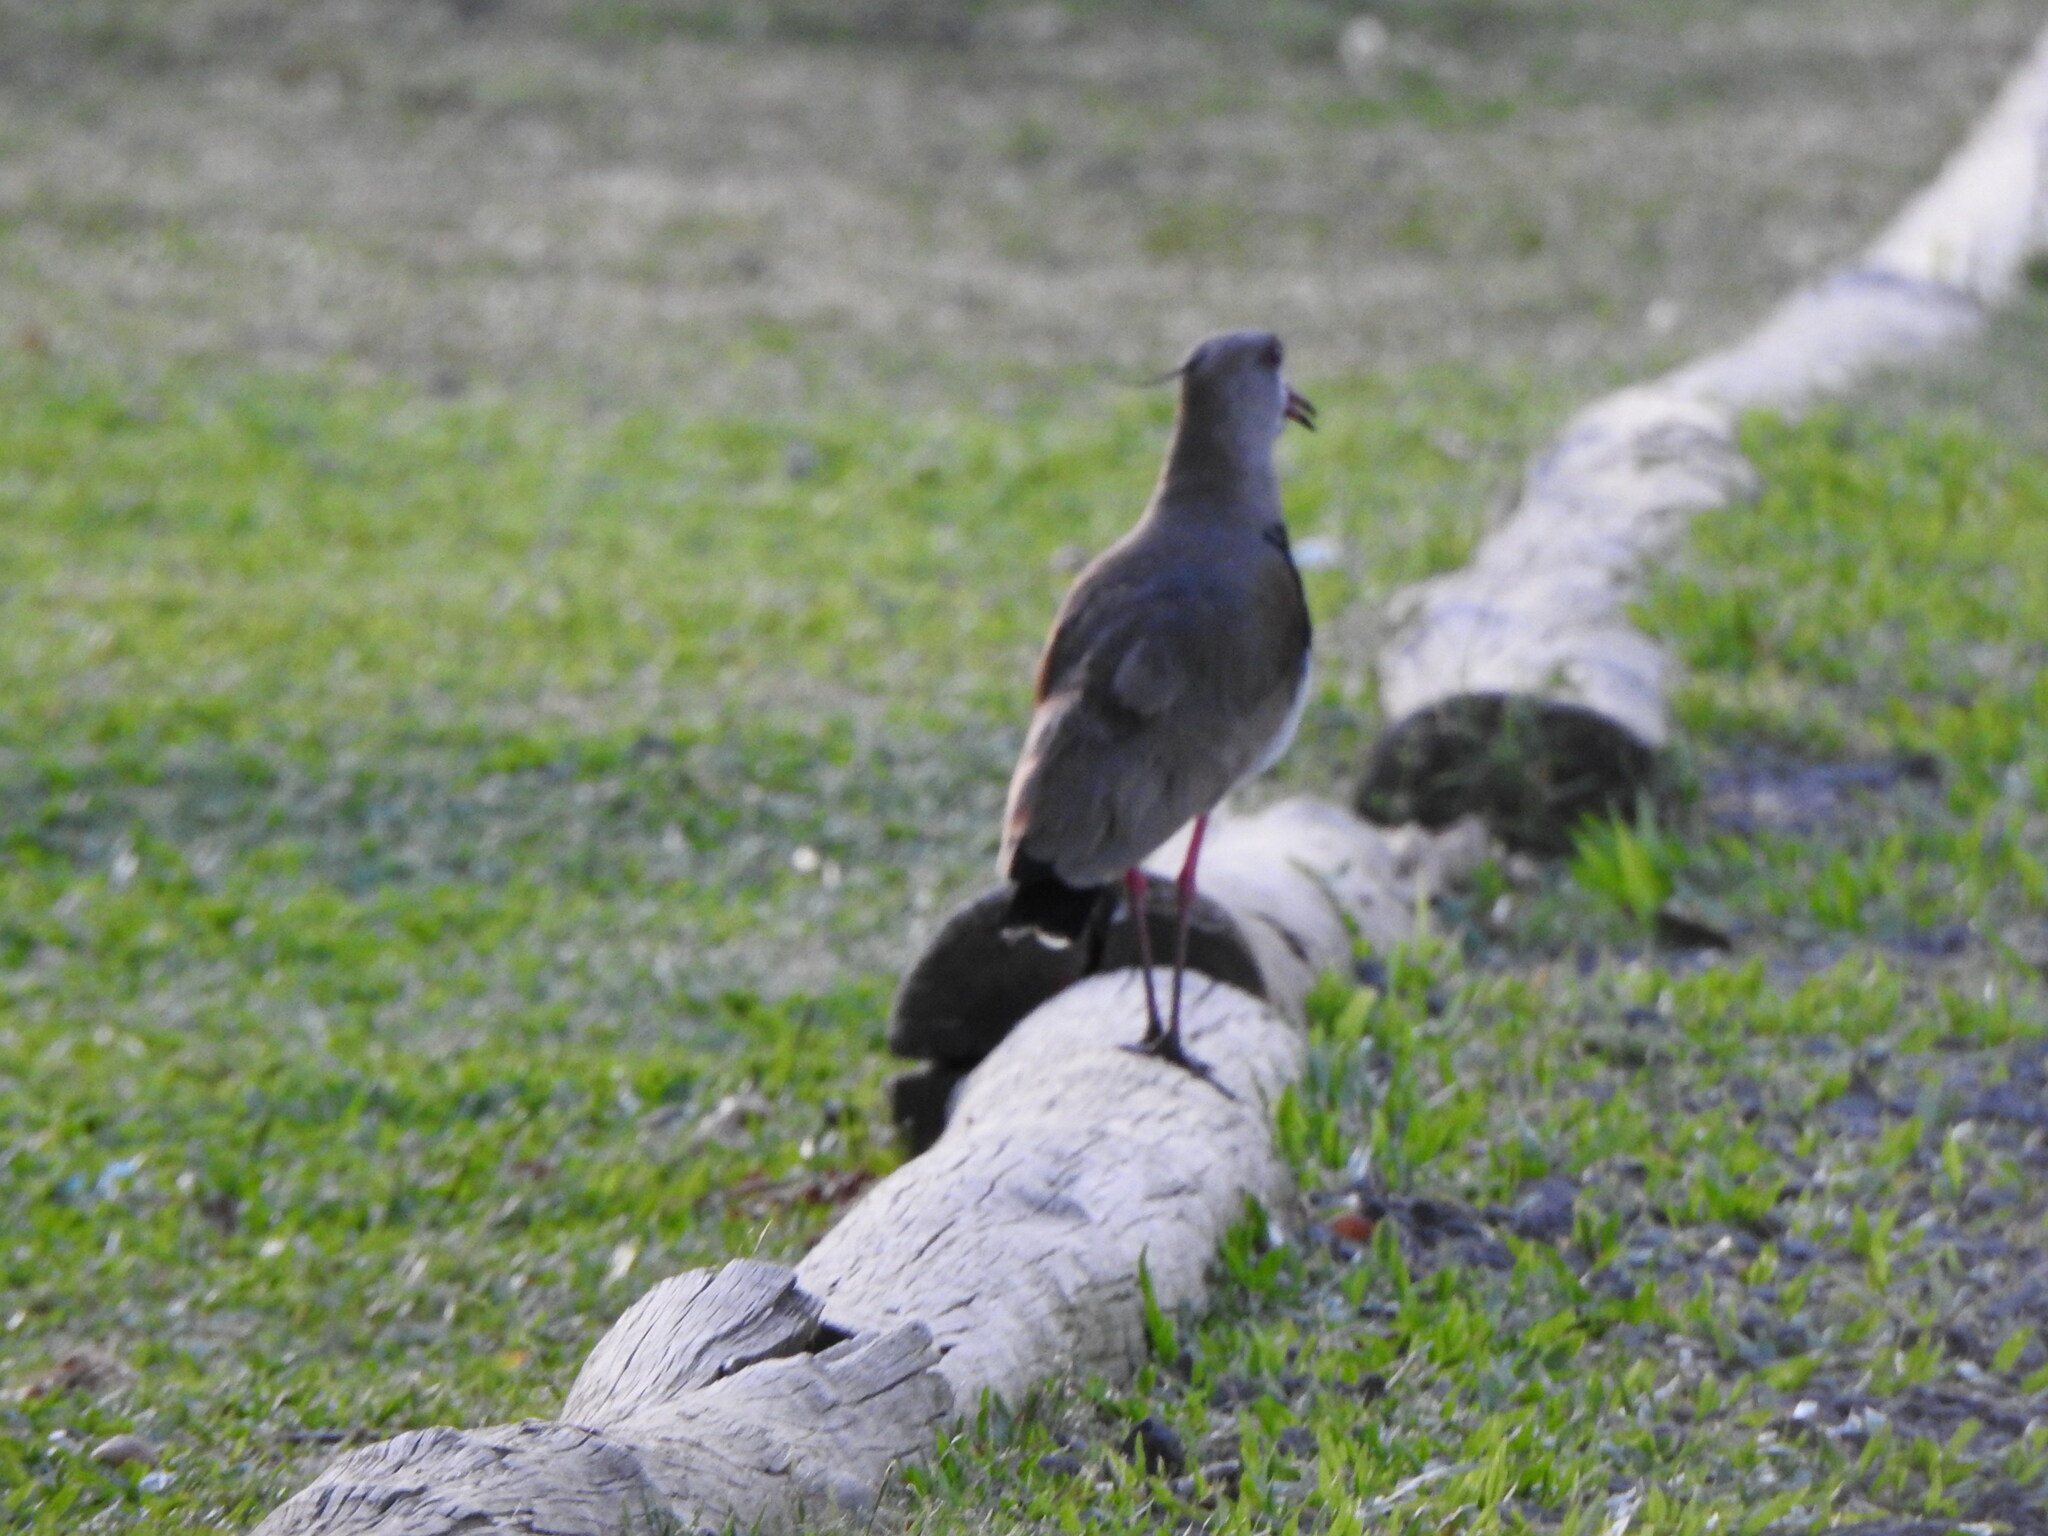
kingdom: Animalia
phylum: Chordata
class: Aves
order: Charadriiformes
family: Charadriidae
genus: Vanellus
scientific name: Vanellus chilensis
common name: Southern lapwing
